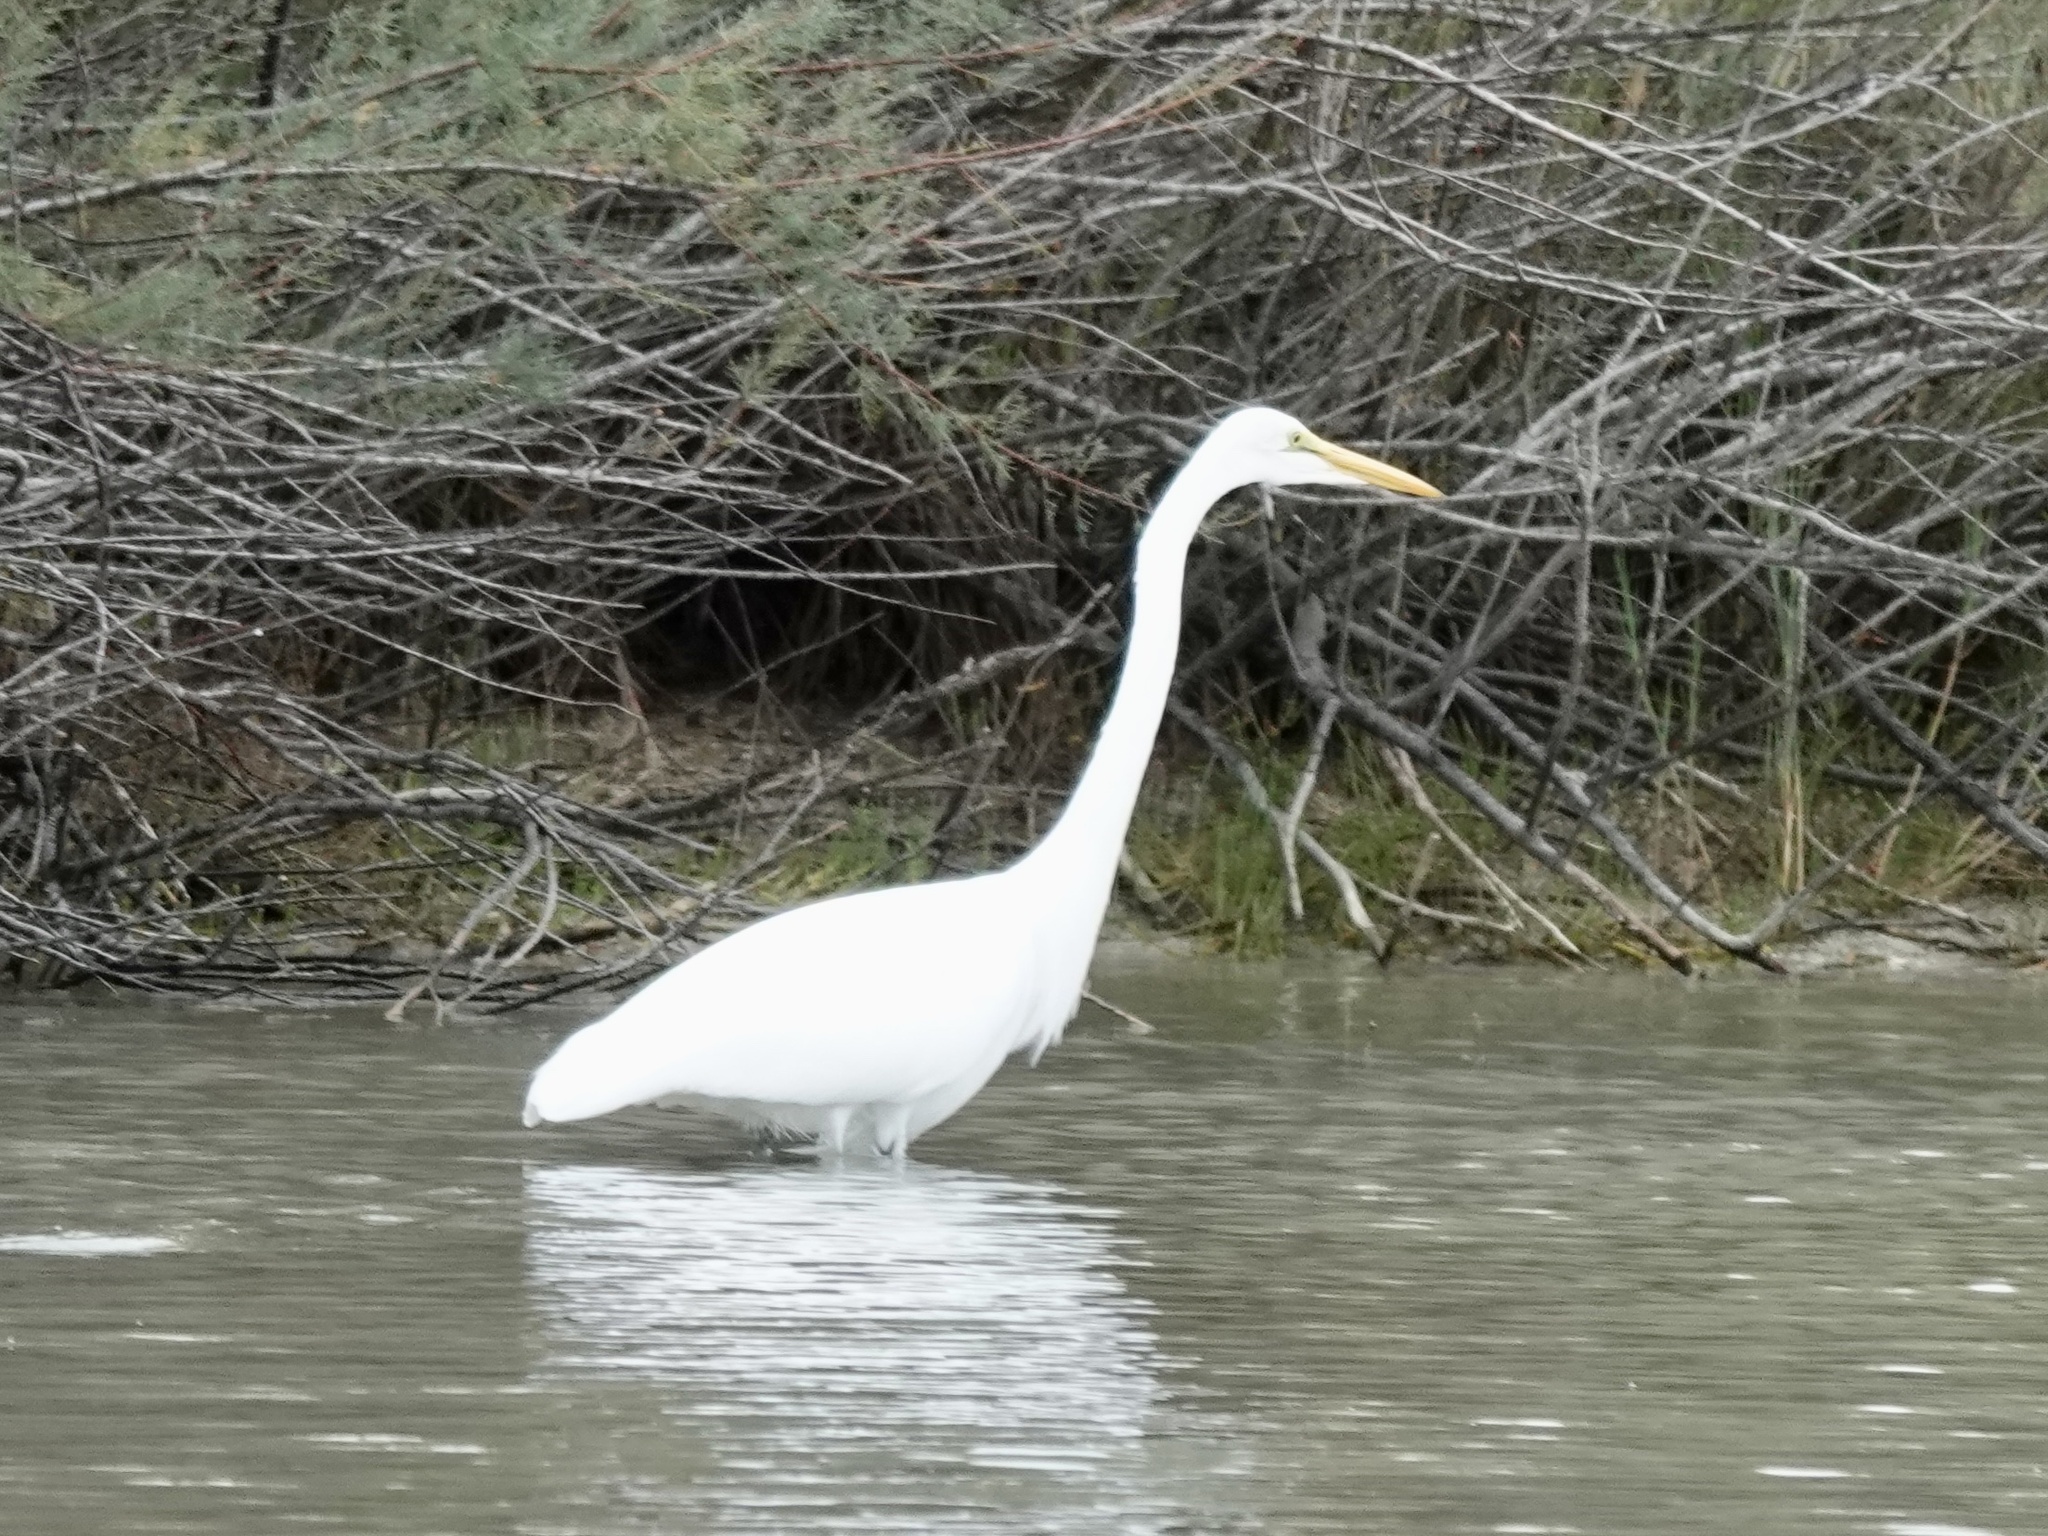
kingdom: Animalia
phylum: Chordata
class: Aves
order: Pelecaniformes
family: Ardeidae
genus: Ardea
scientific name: Ardea alba
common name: Great egret
